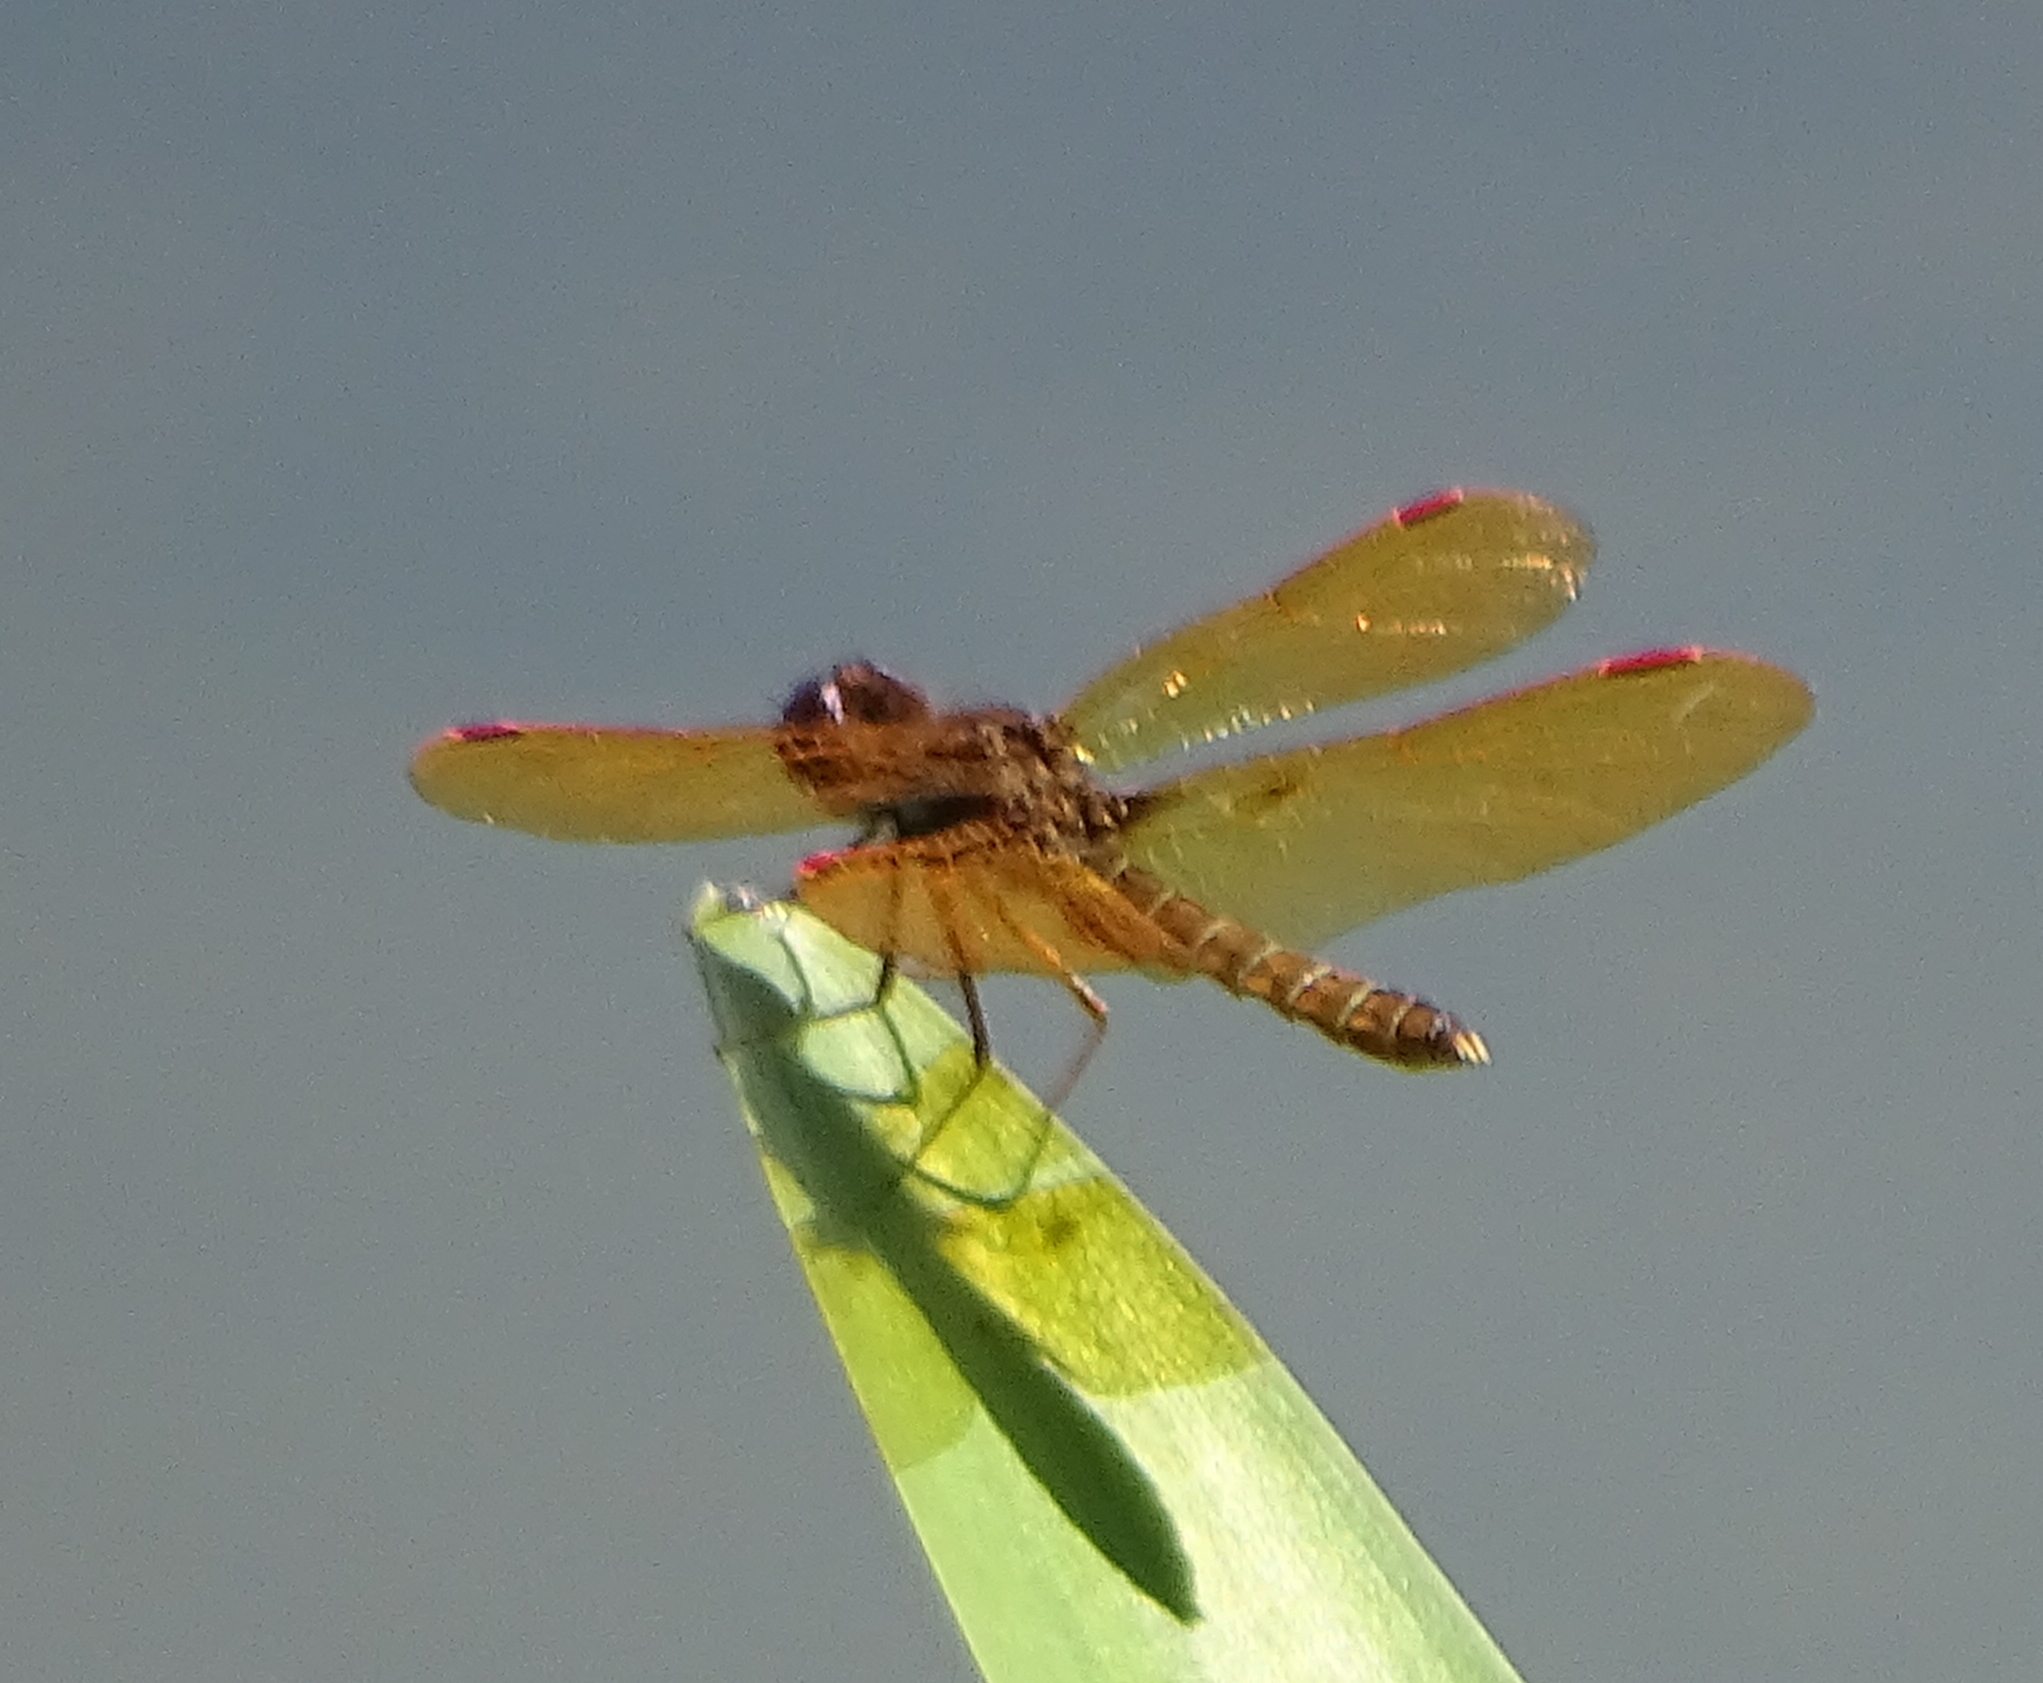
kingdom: Animalia
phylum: Arthropoda
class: Insecta
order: Odonata
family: Libellulidae
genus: Perithemis
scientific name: Perithemis tenera
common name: Eastern amberwing
